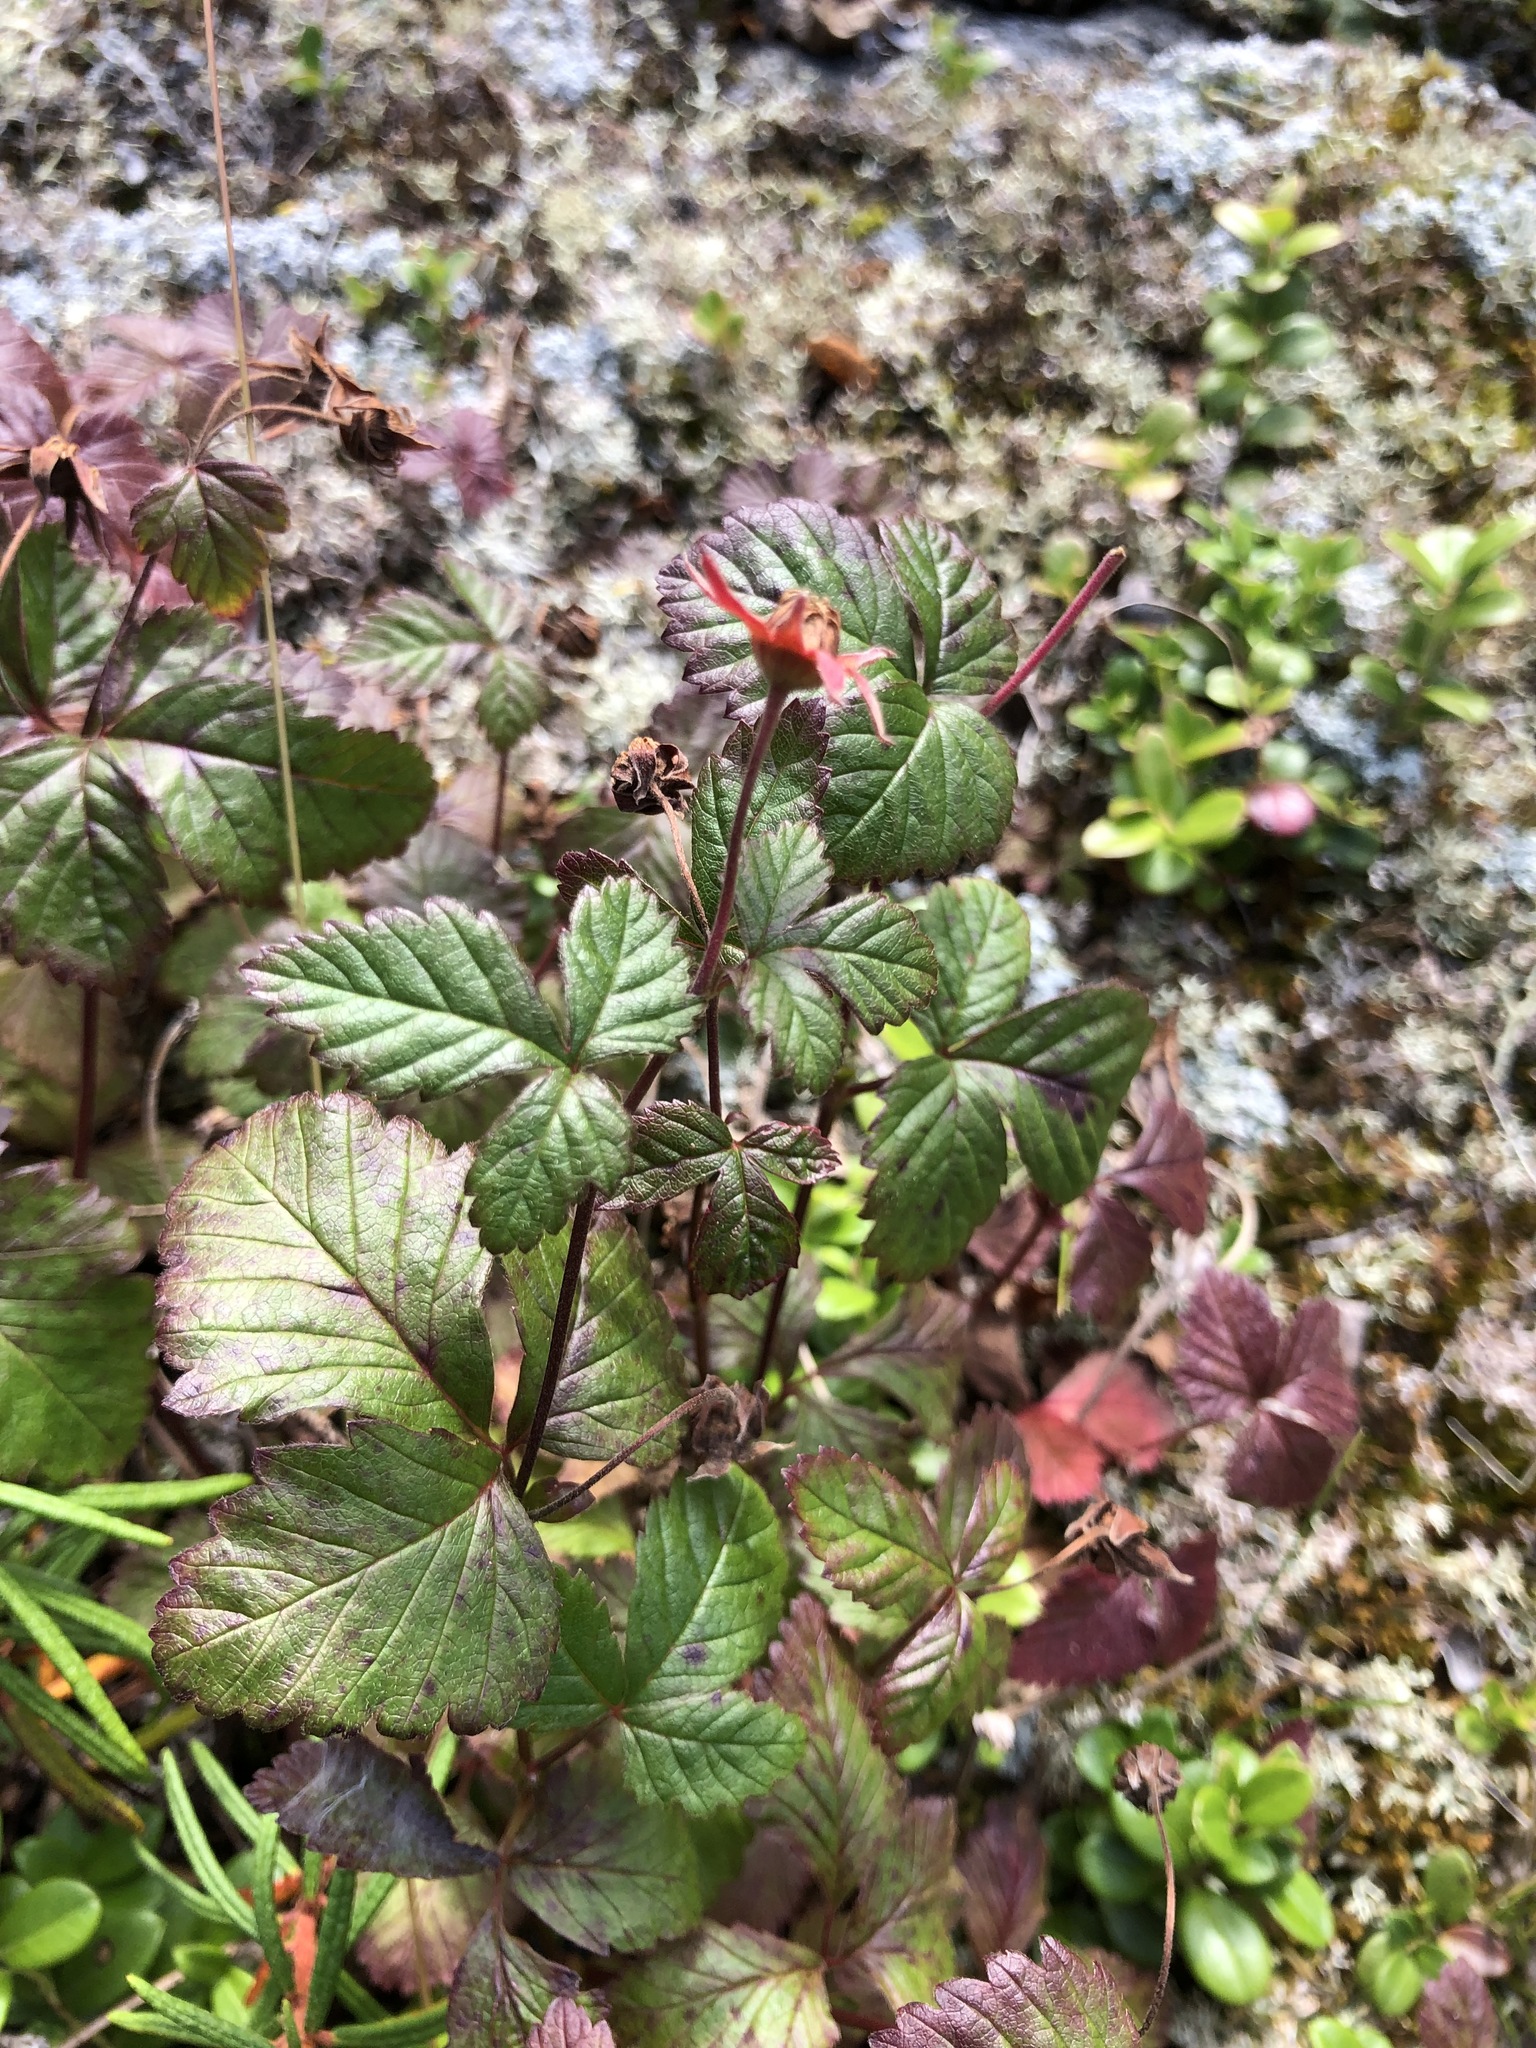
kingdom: Plantae
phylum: Tracheophyta
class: Magnoliopsida
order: Rosales
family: Rosaceae
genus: Rubus
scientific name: Rubus arcticus
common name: Arctic bramble
